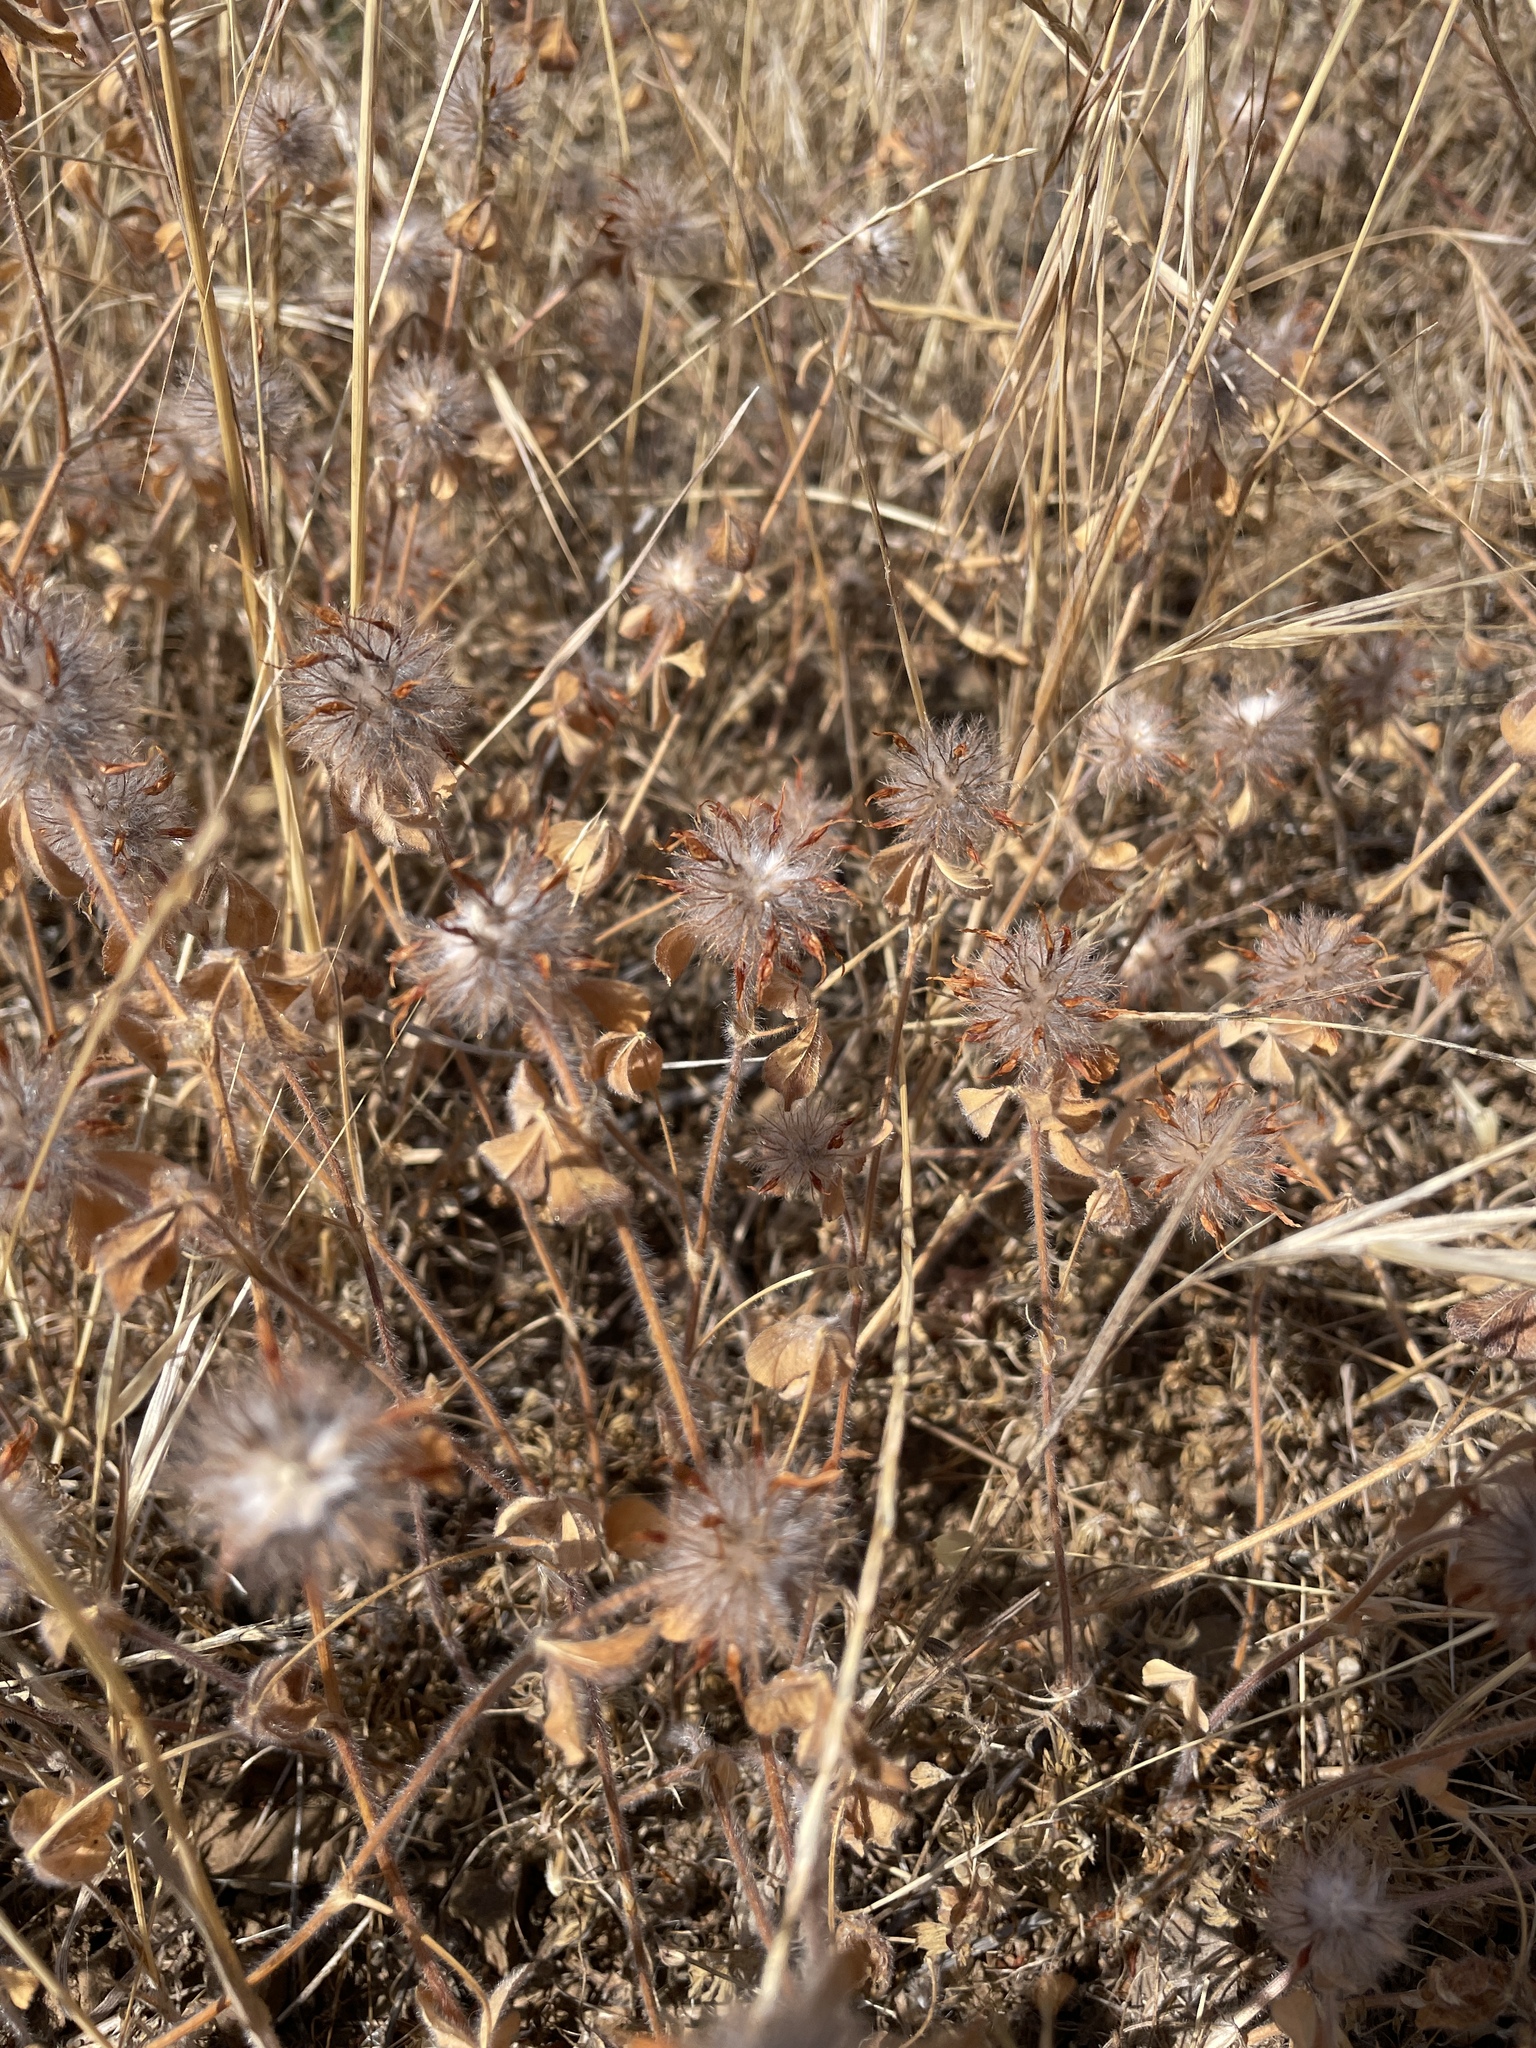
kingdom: Plantae
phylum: Tracheophyta
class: Magnoliopsida
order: Fabales
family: Fabaceae
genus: Trifolium
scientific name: Trifolium hirtum
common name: Rose clover
